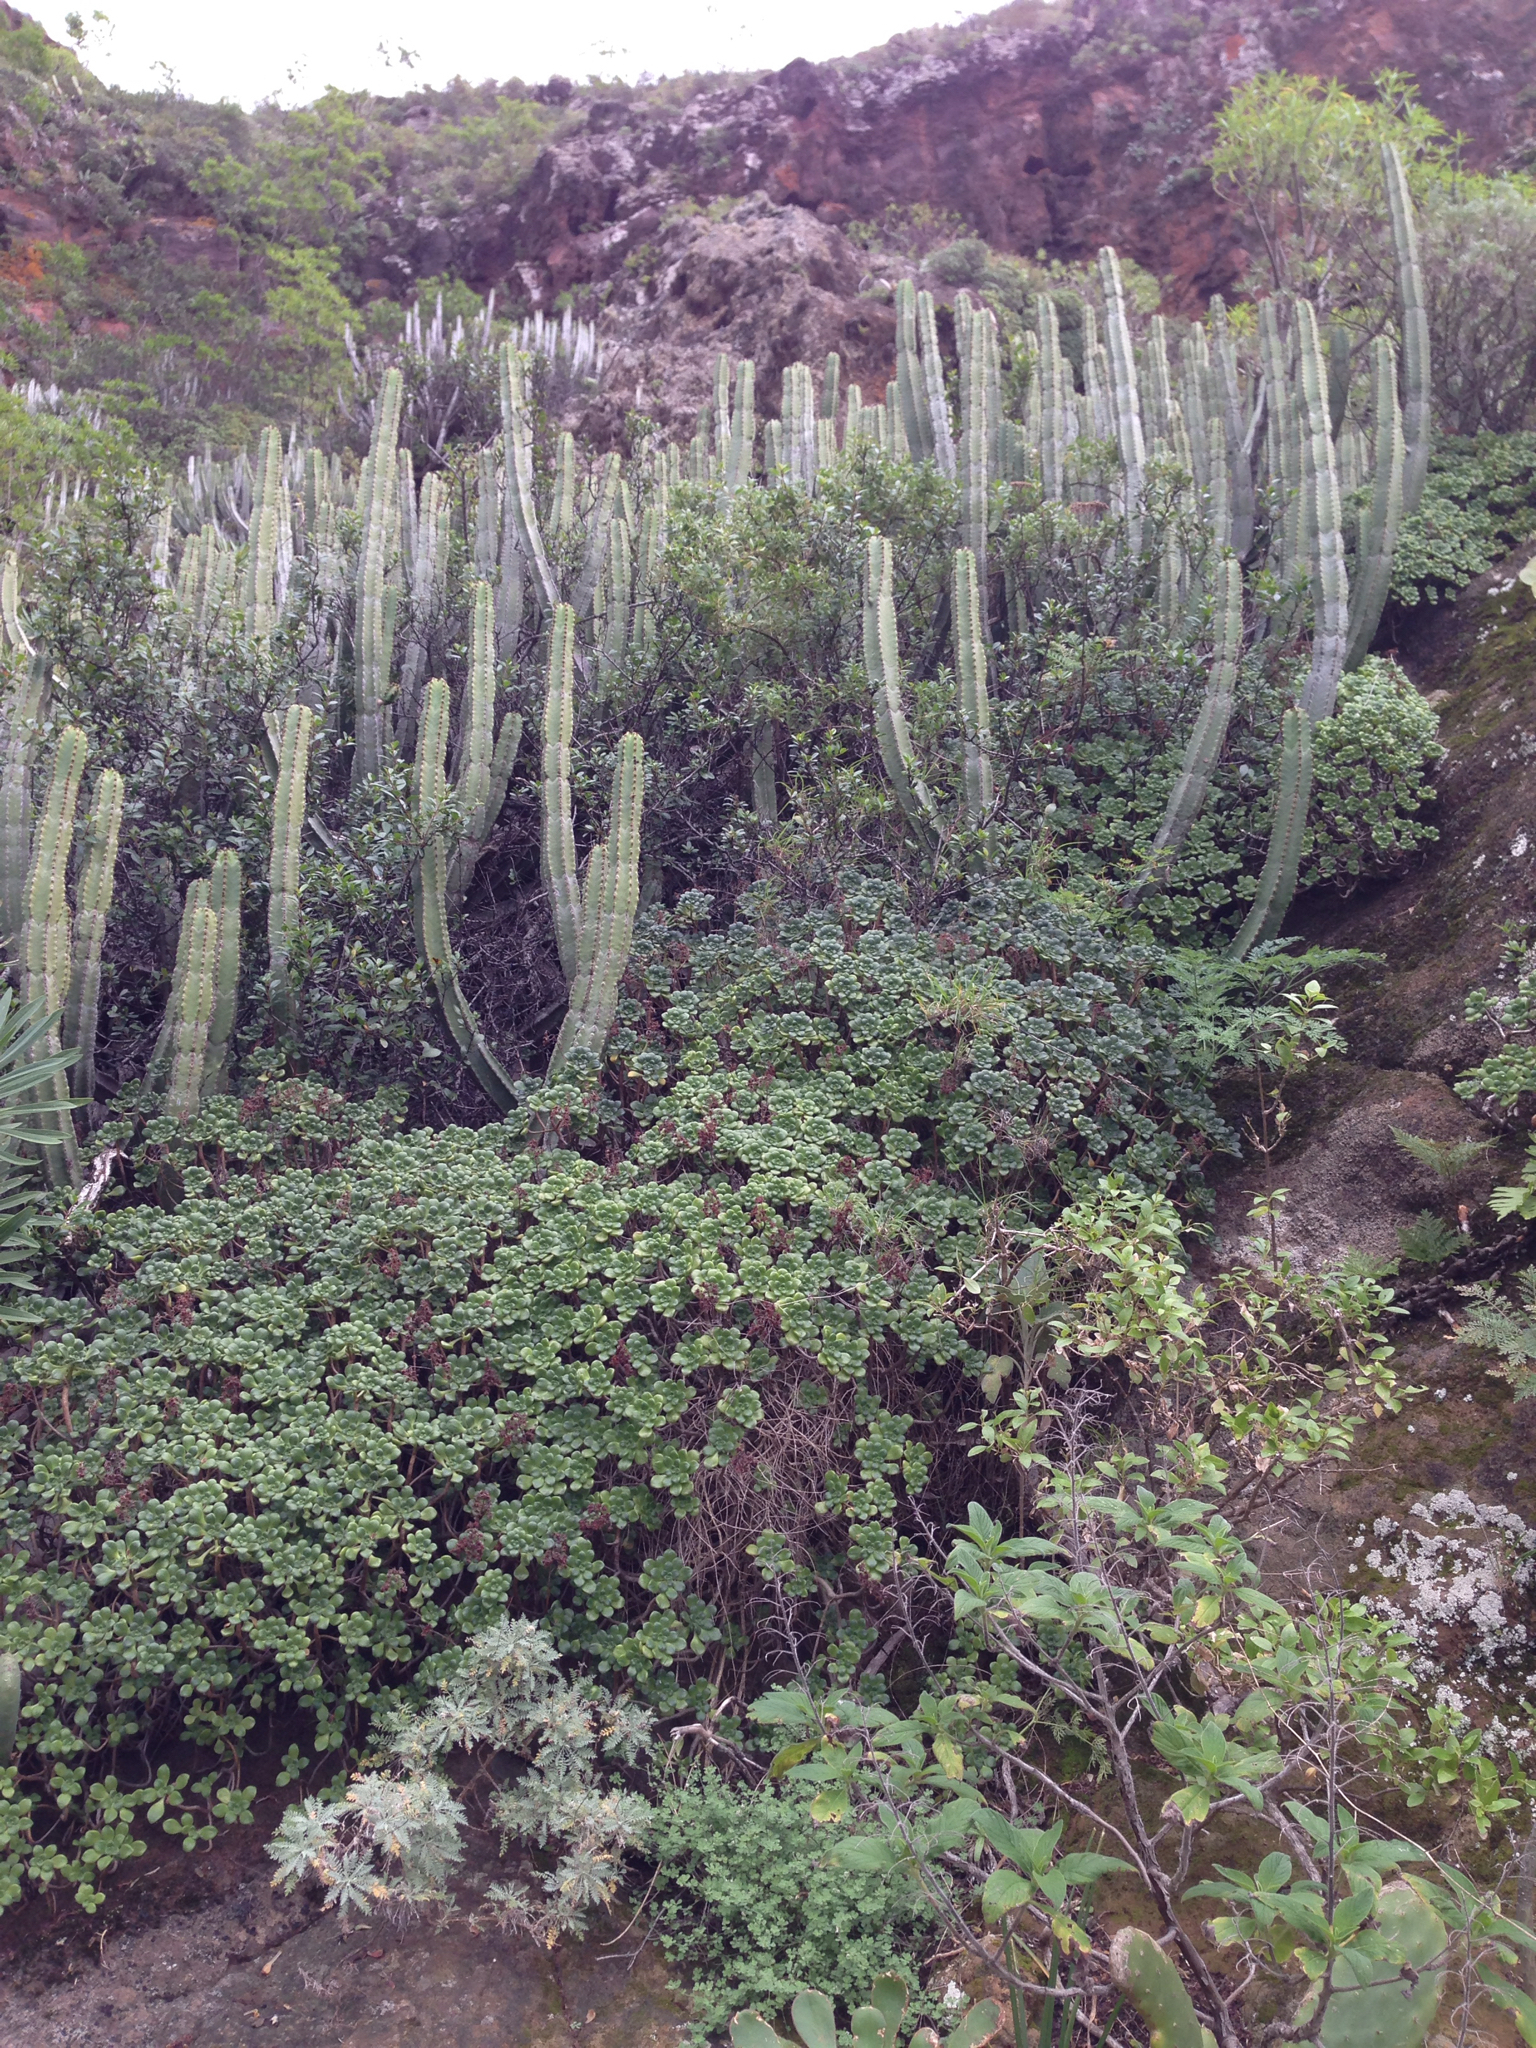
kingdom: Plantae
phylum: Tracheophyta
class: Magnoliopsida
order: Malpighiales
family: Euphorbiaceae
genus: Euphorbia
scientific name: Euphorbia canariensis
